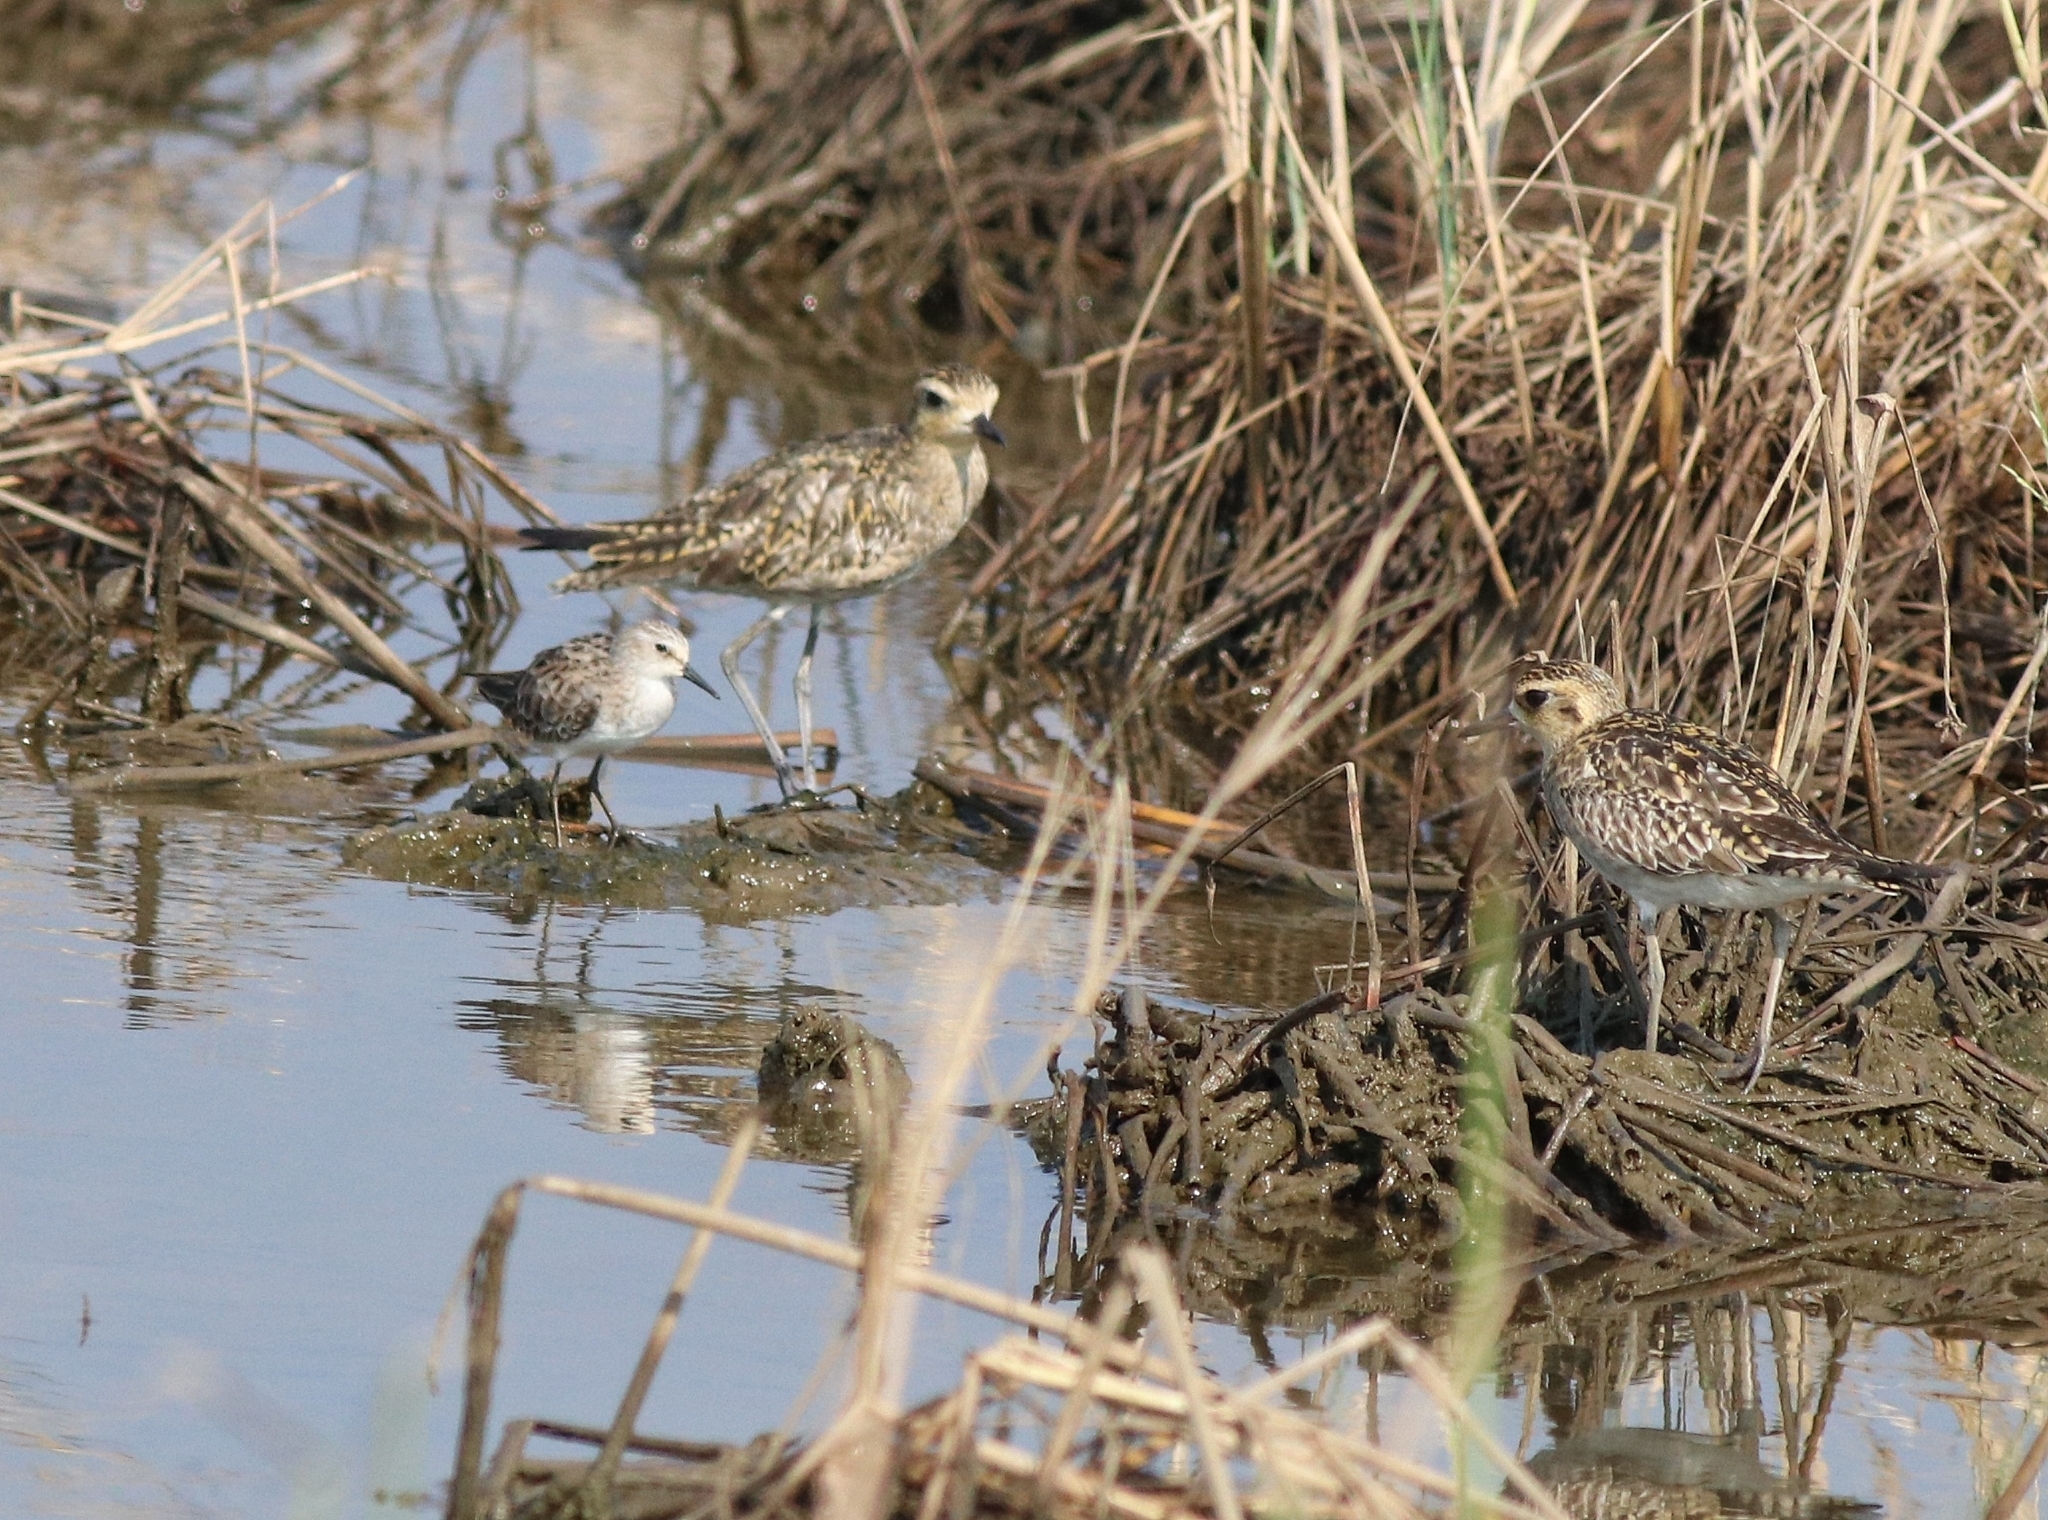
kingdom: Animalia
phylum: Chordata
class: Aves
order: Charadriiformes
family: Charadriidae
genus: Pluvialis
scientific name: Pluvialis fulva
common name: Pacific golden plover
